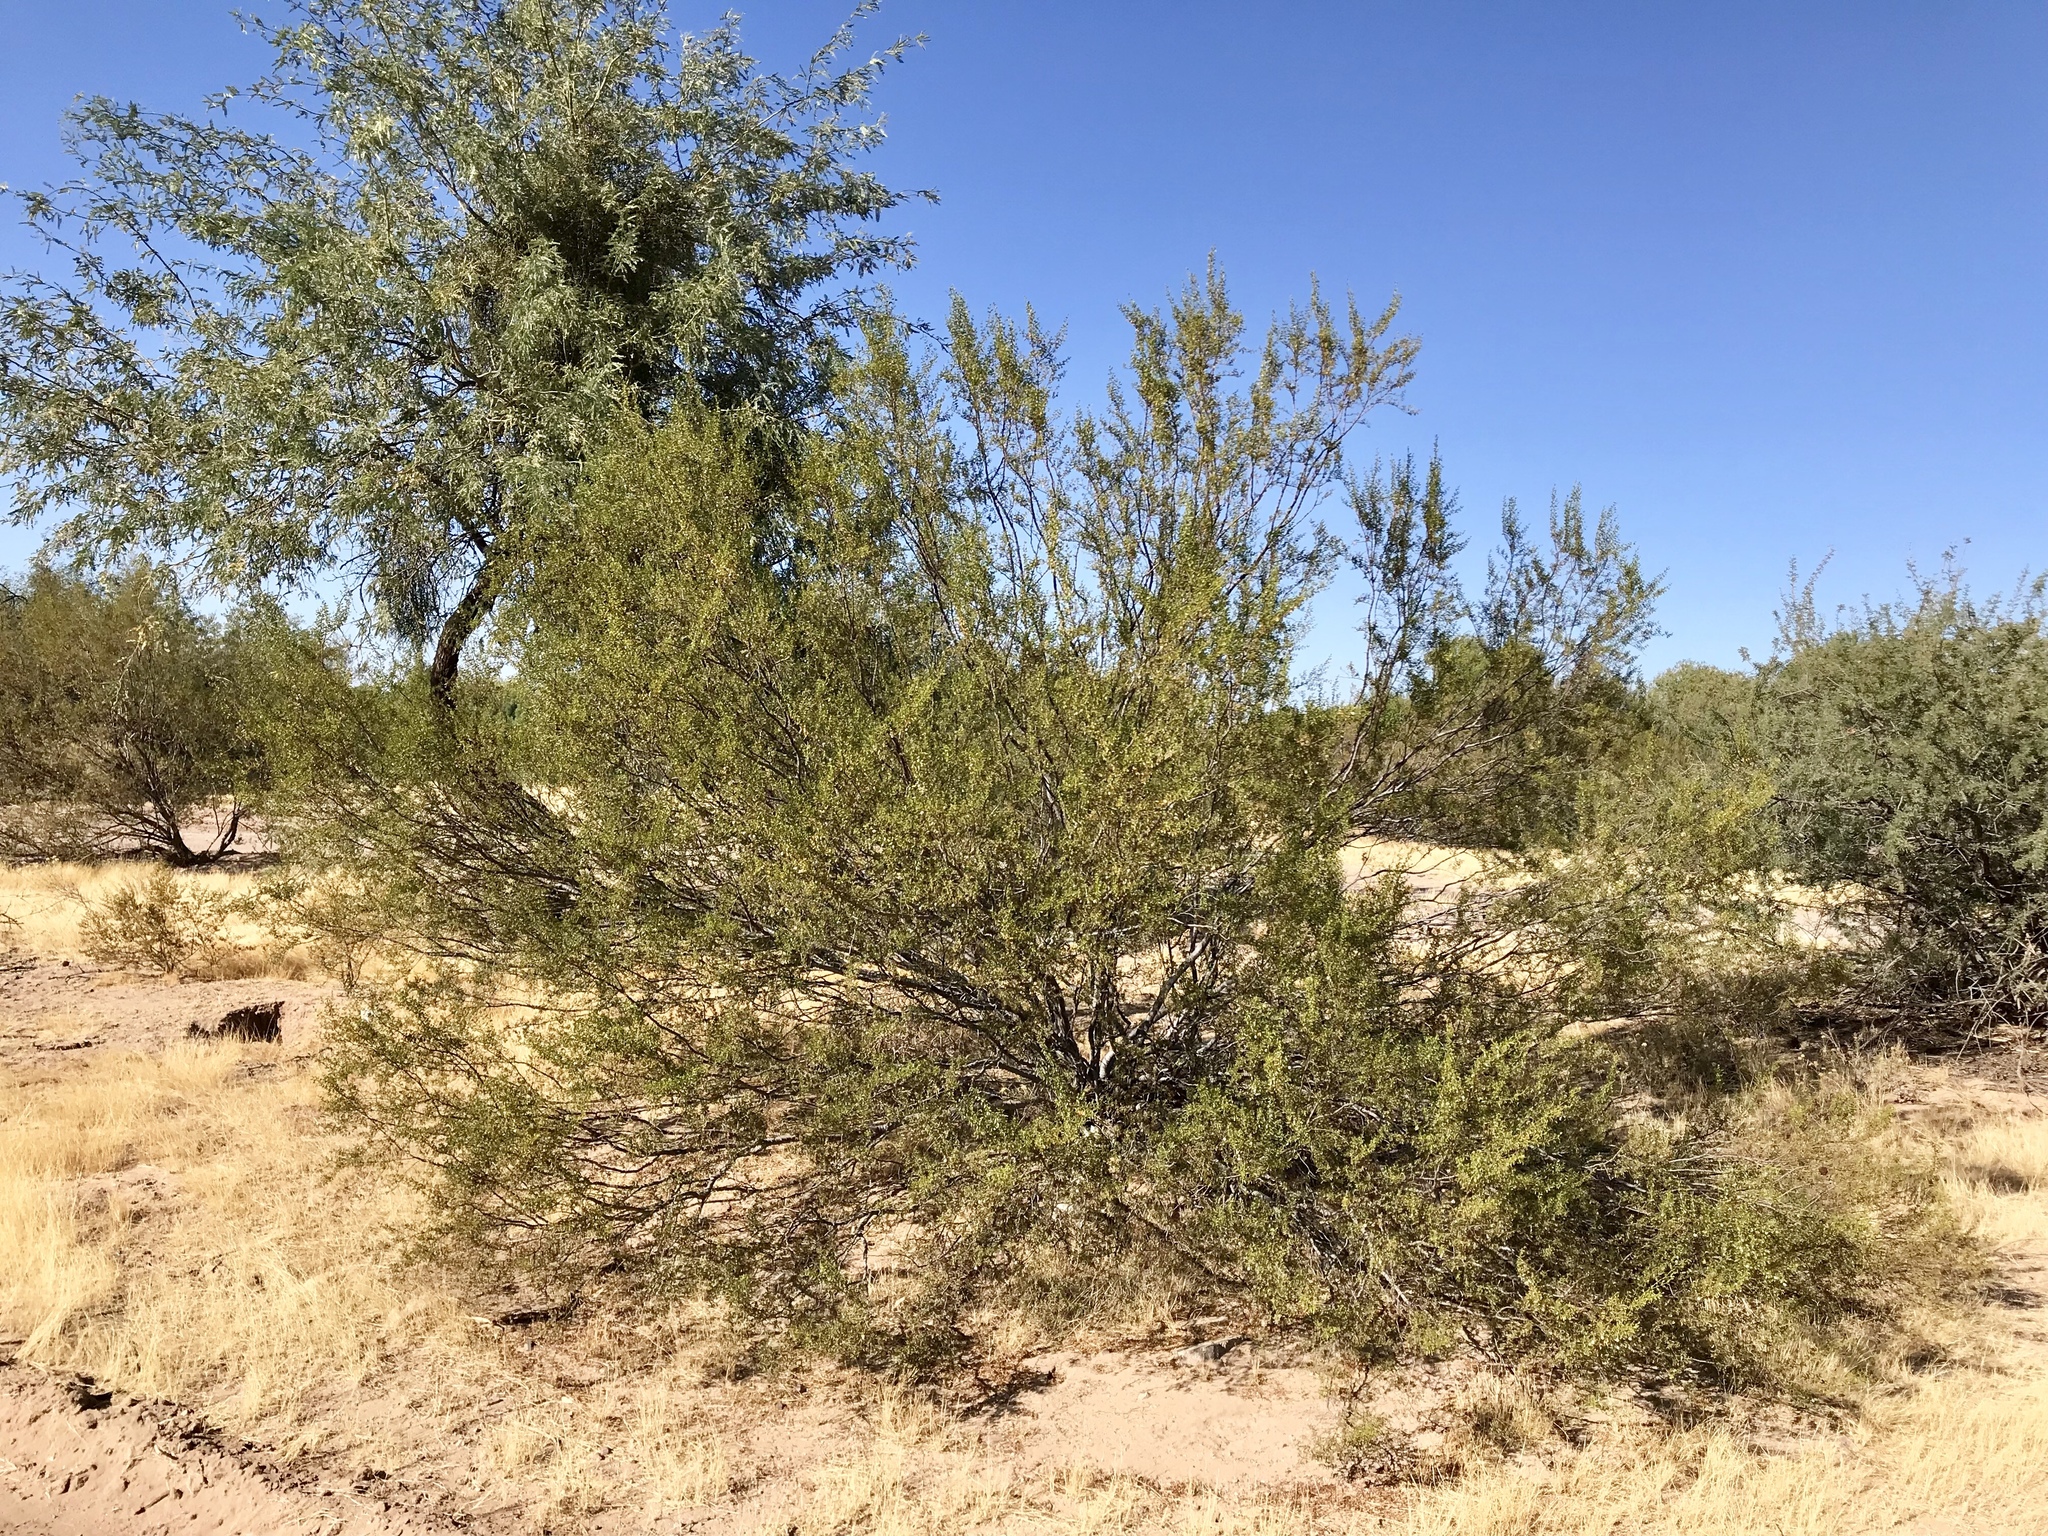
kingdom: Plantae
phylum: Tracheophyta
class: Magnoliopsida
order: Zygophyllales
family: Zygophyllaceae
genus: Larrea
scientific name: Larrea tridentata
